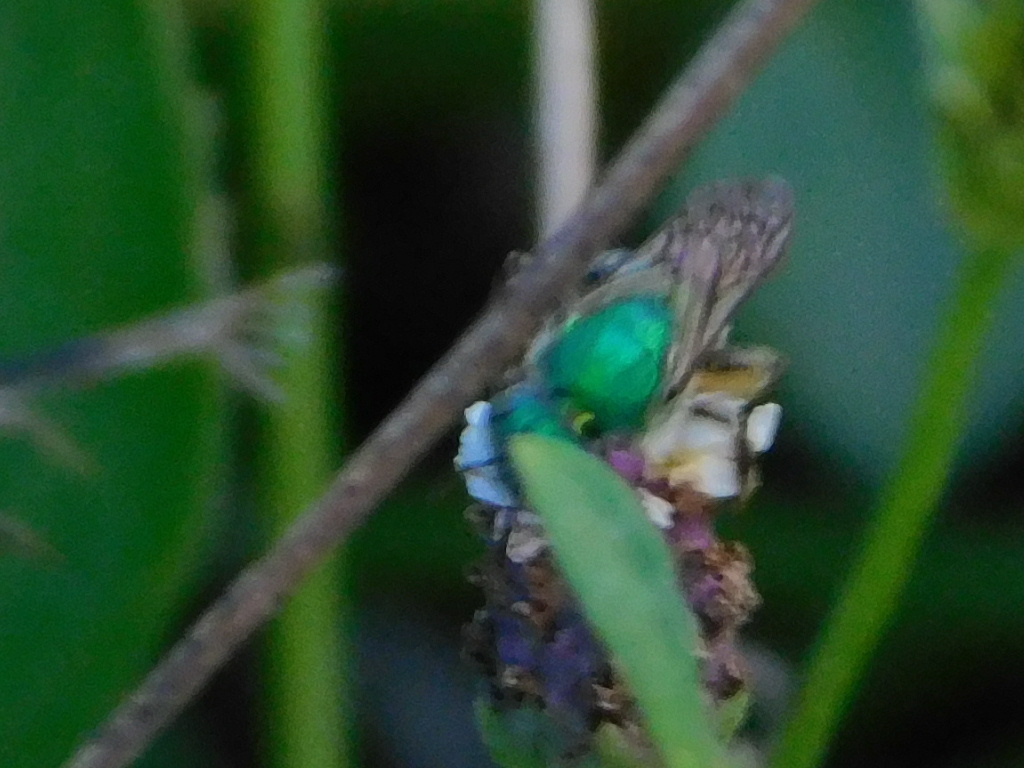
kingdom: Animalia
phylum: Arthropoda
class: Insecta
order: Hymenoptera
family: Halictidae
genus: Agapostemon
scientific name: Agapostemon splendens
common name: Brown-winged striped sweat bee
